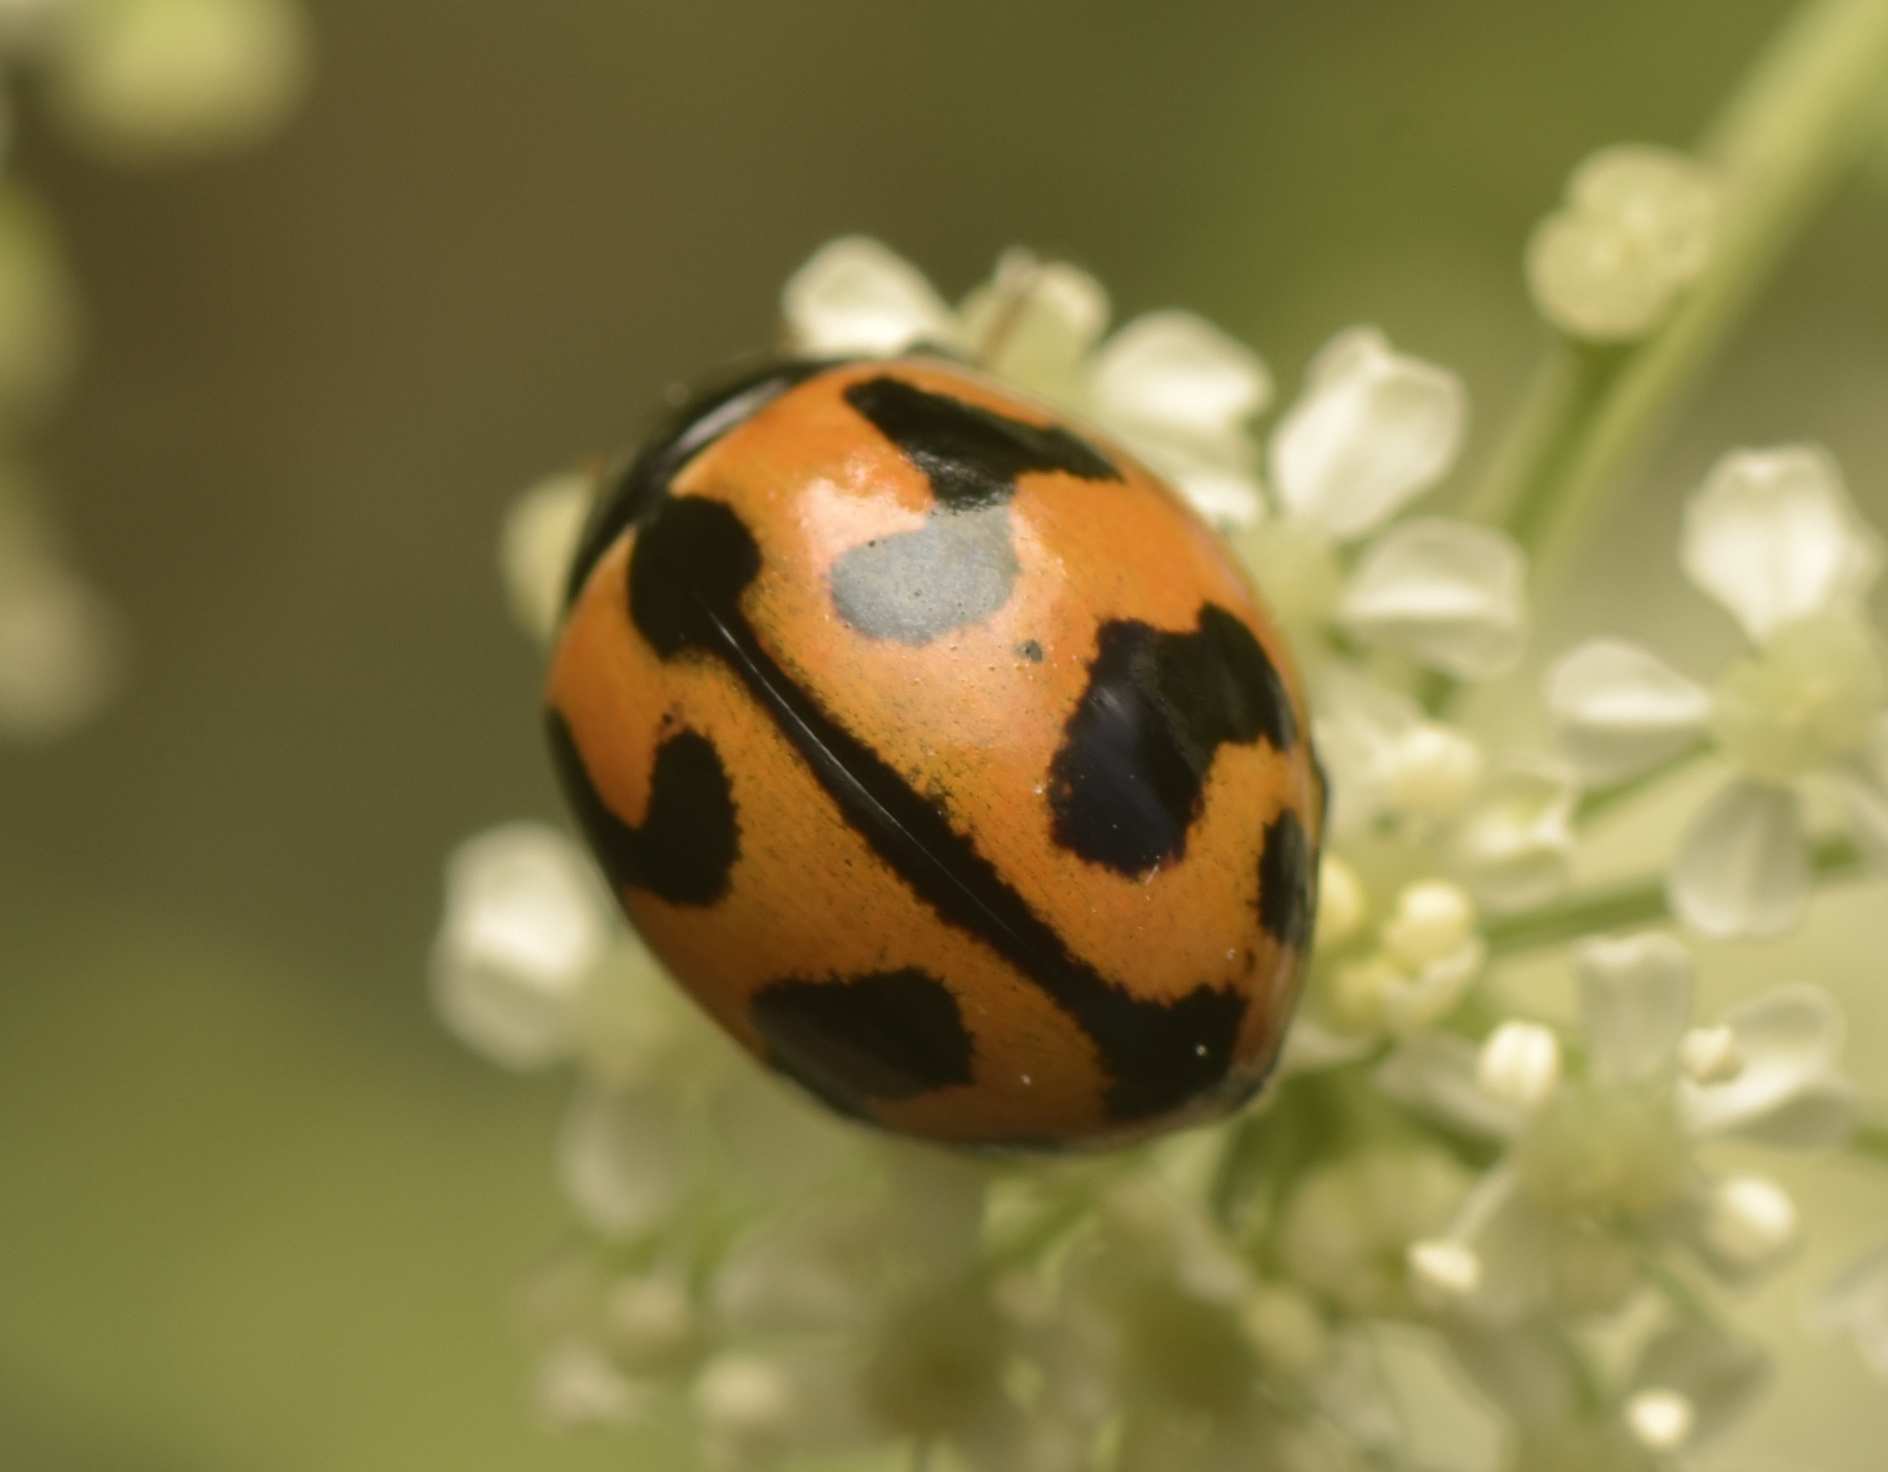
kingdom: Animalia
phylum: Arthropoda
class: Insecta
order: Coleoptera
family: Coccinellidae
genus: Coccinella
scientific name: Coccinella transversalis
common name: Transverse lady beetle
